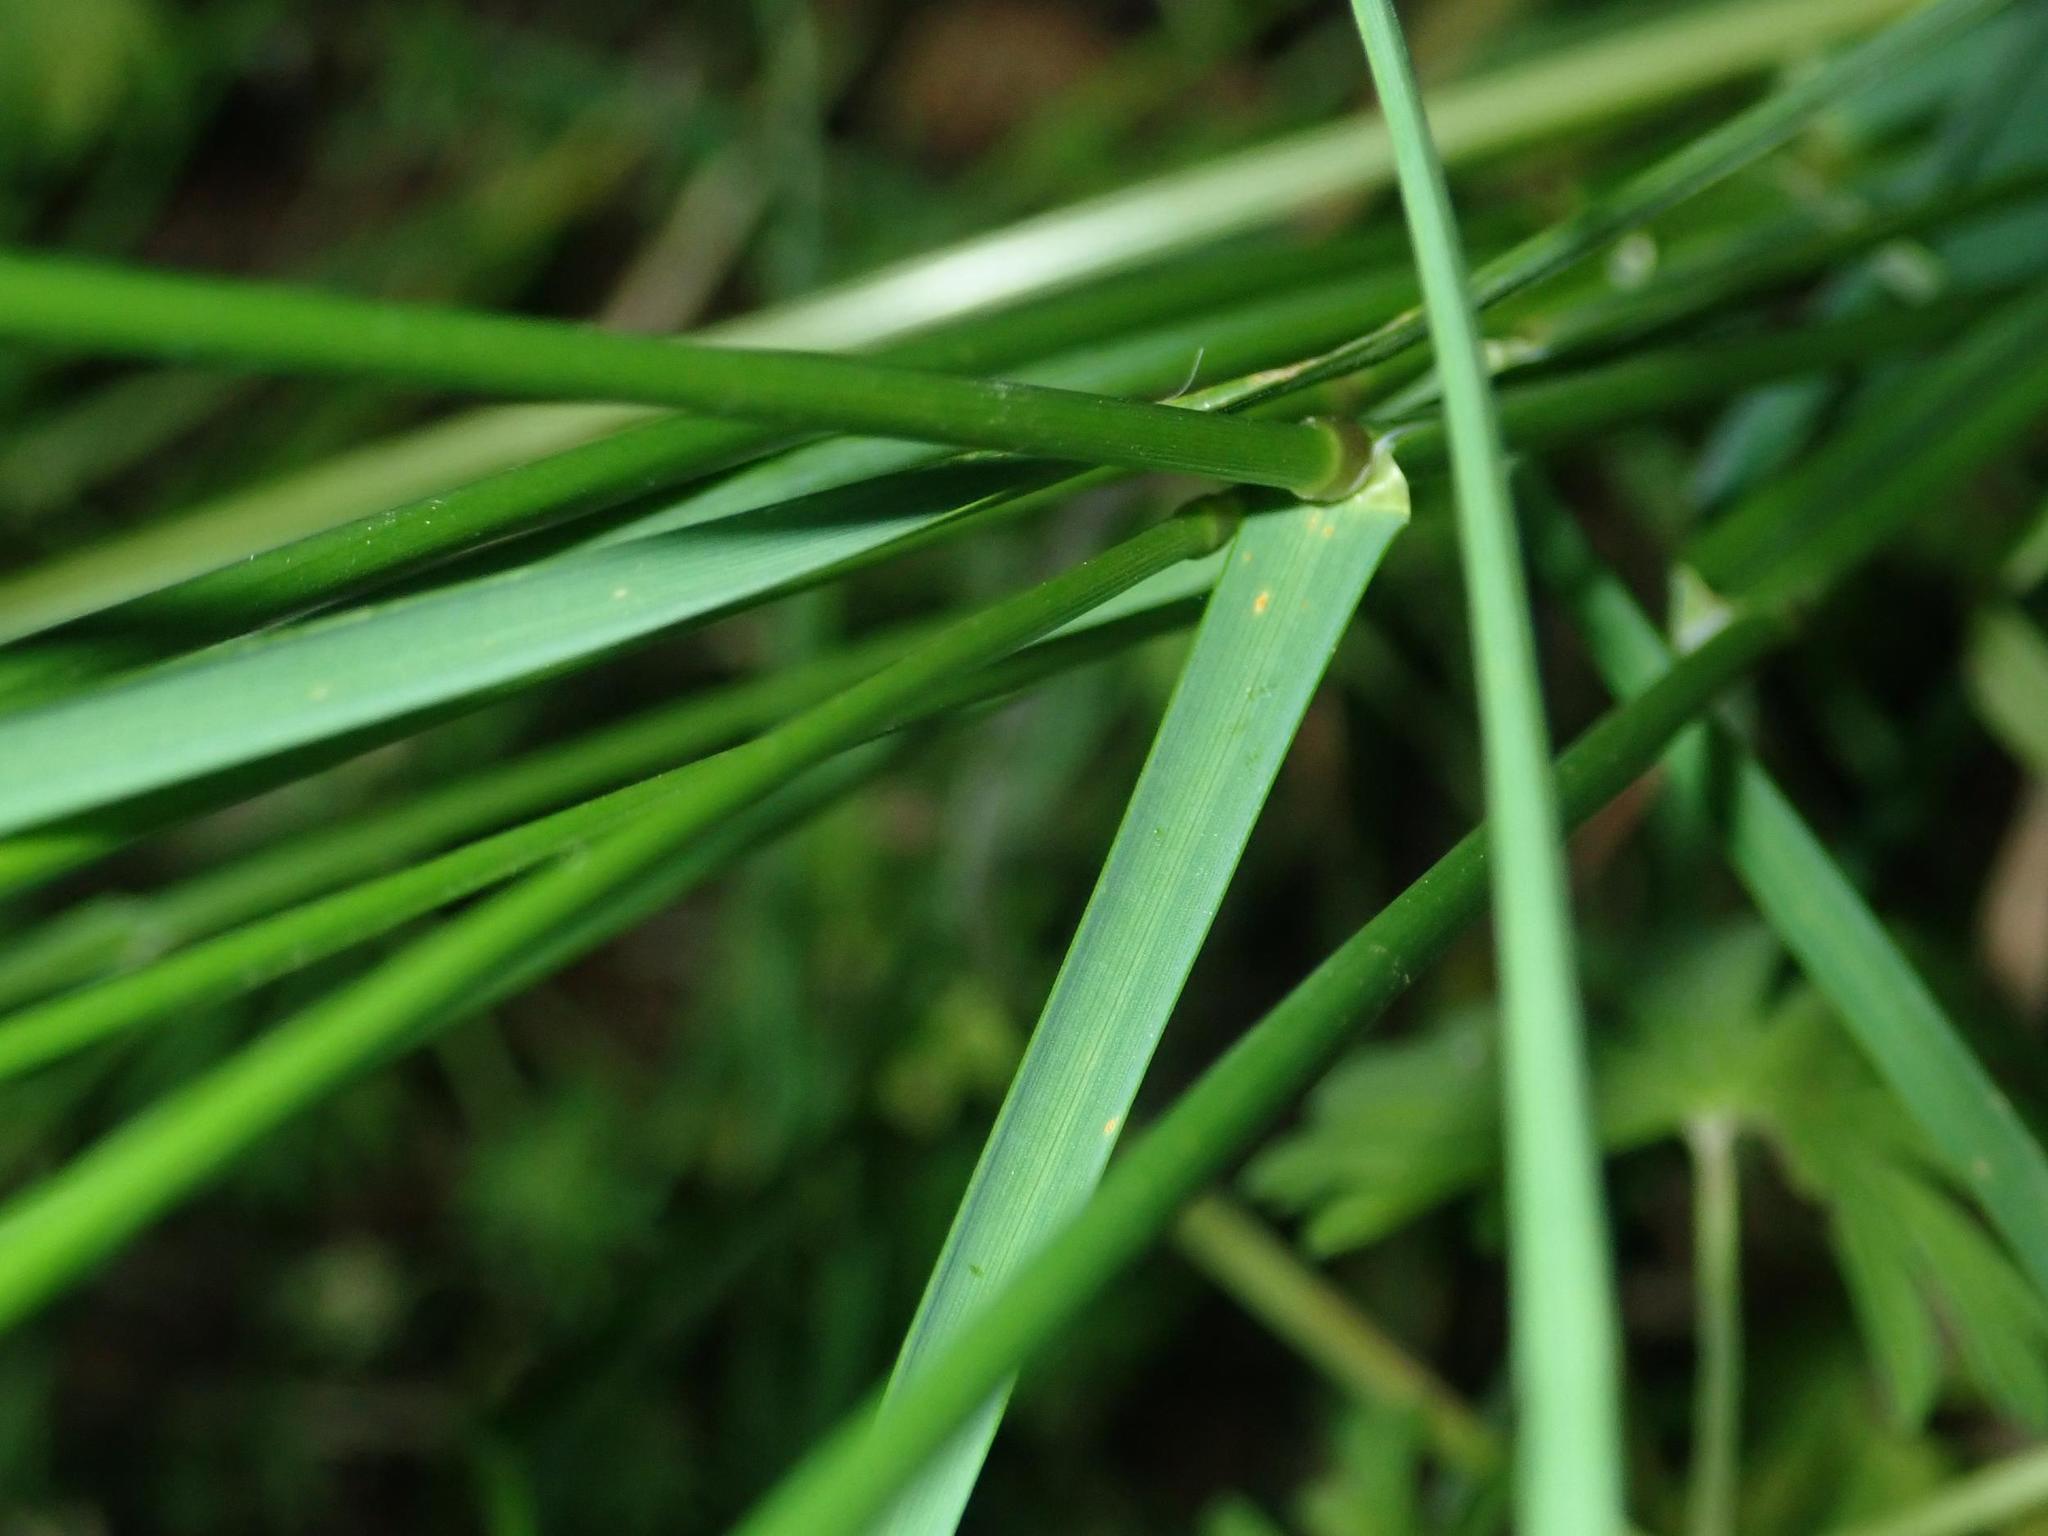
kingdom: Plantae
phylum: Tracheophyta
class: Liliopsida
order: Poales
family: Poaceae
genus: Poa
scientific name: Poa nemoralis
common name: Wood bluegrass
